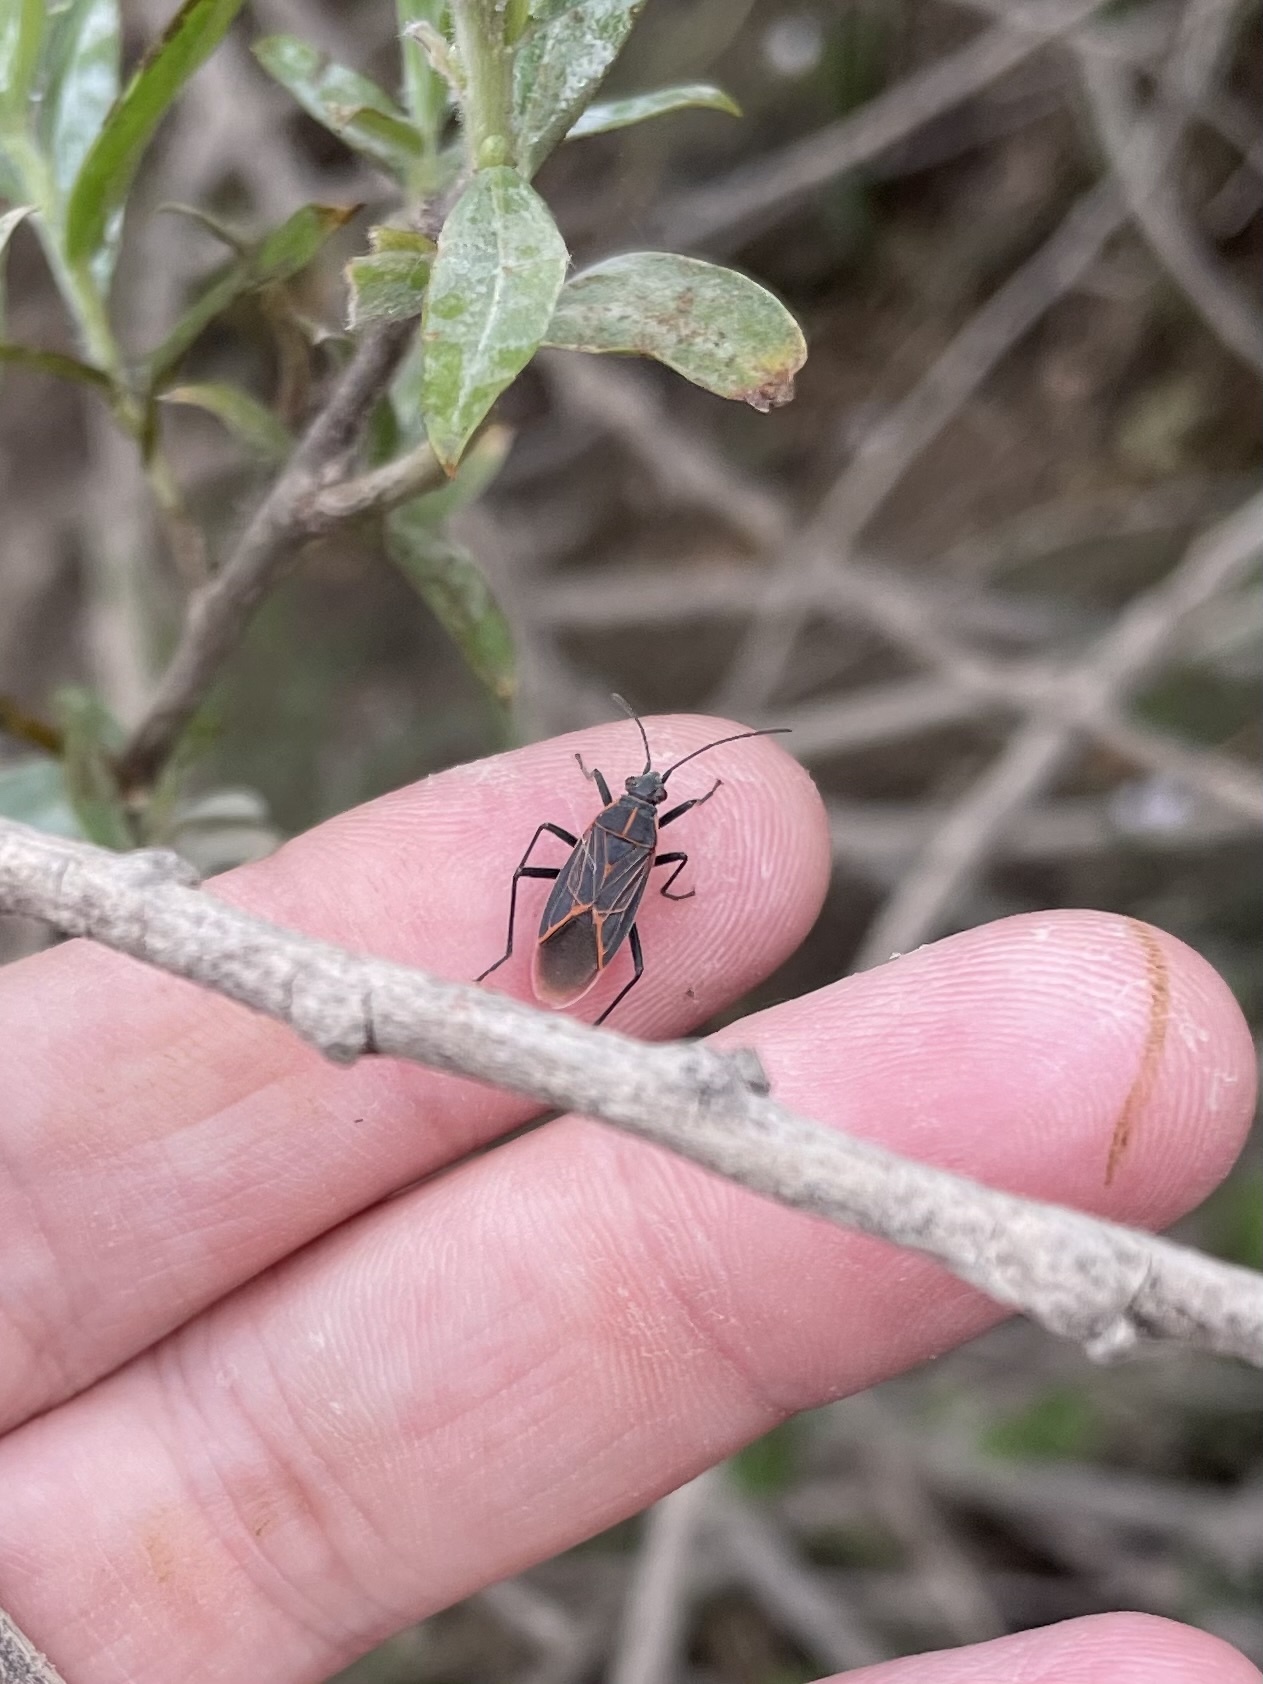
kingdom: Animalia
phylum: Arthropoda
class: Insecta
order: Hemiptera
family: Rhopalidae
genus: Boisea
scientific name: Boisea rubrolineata
